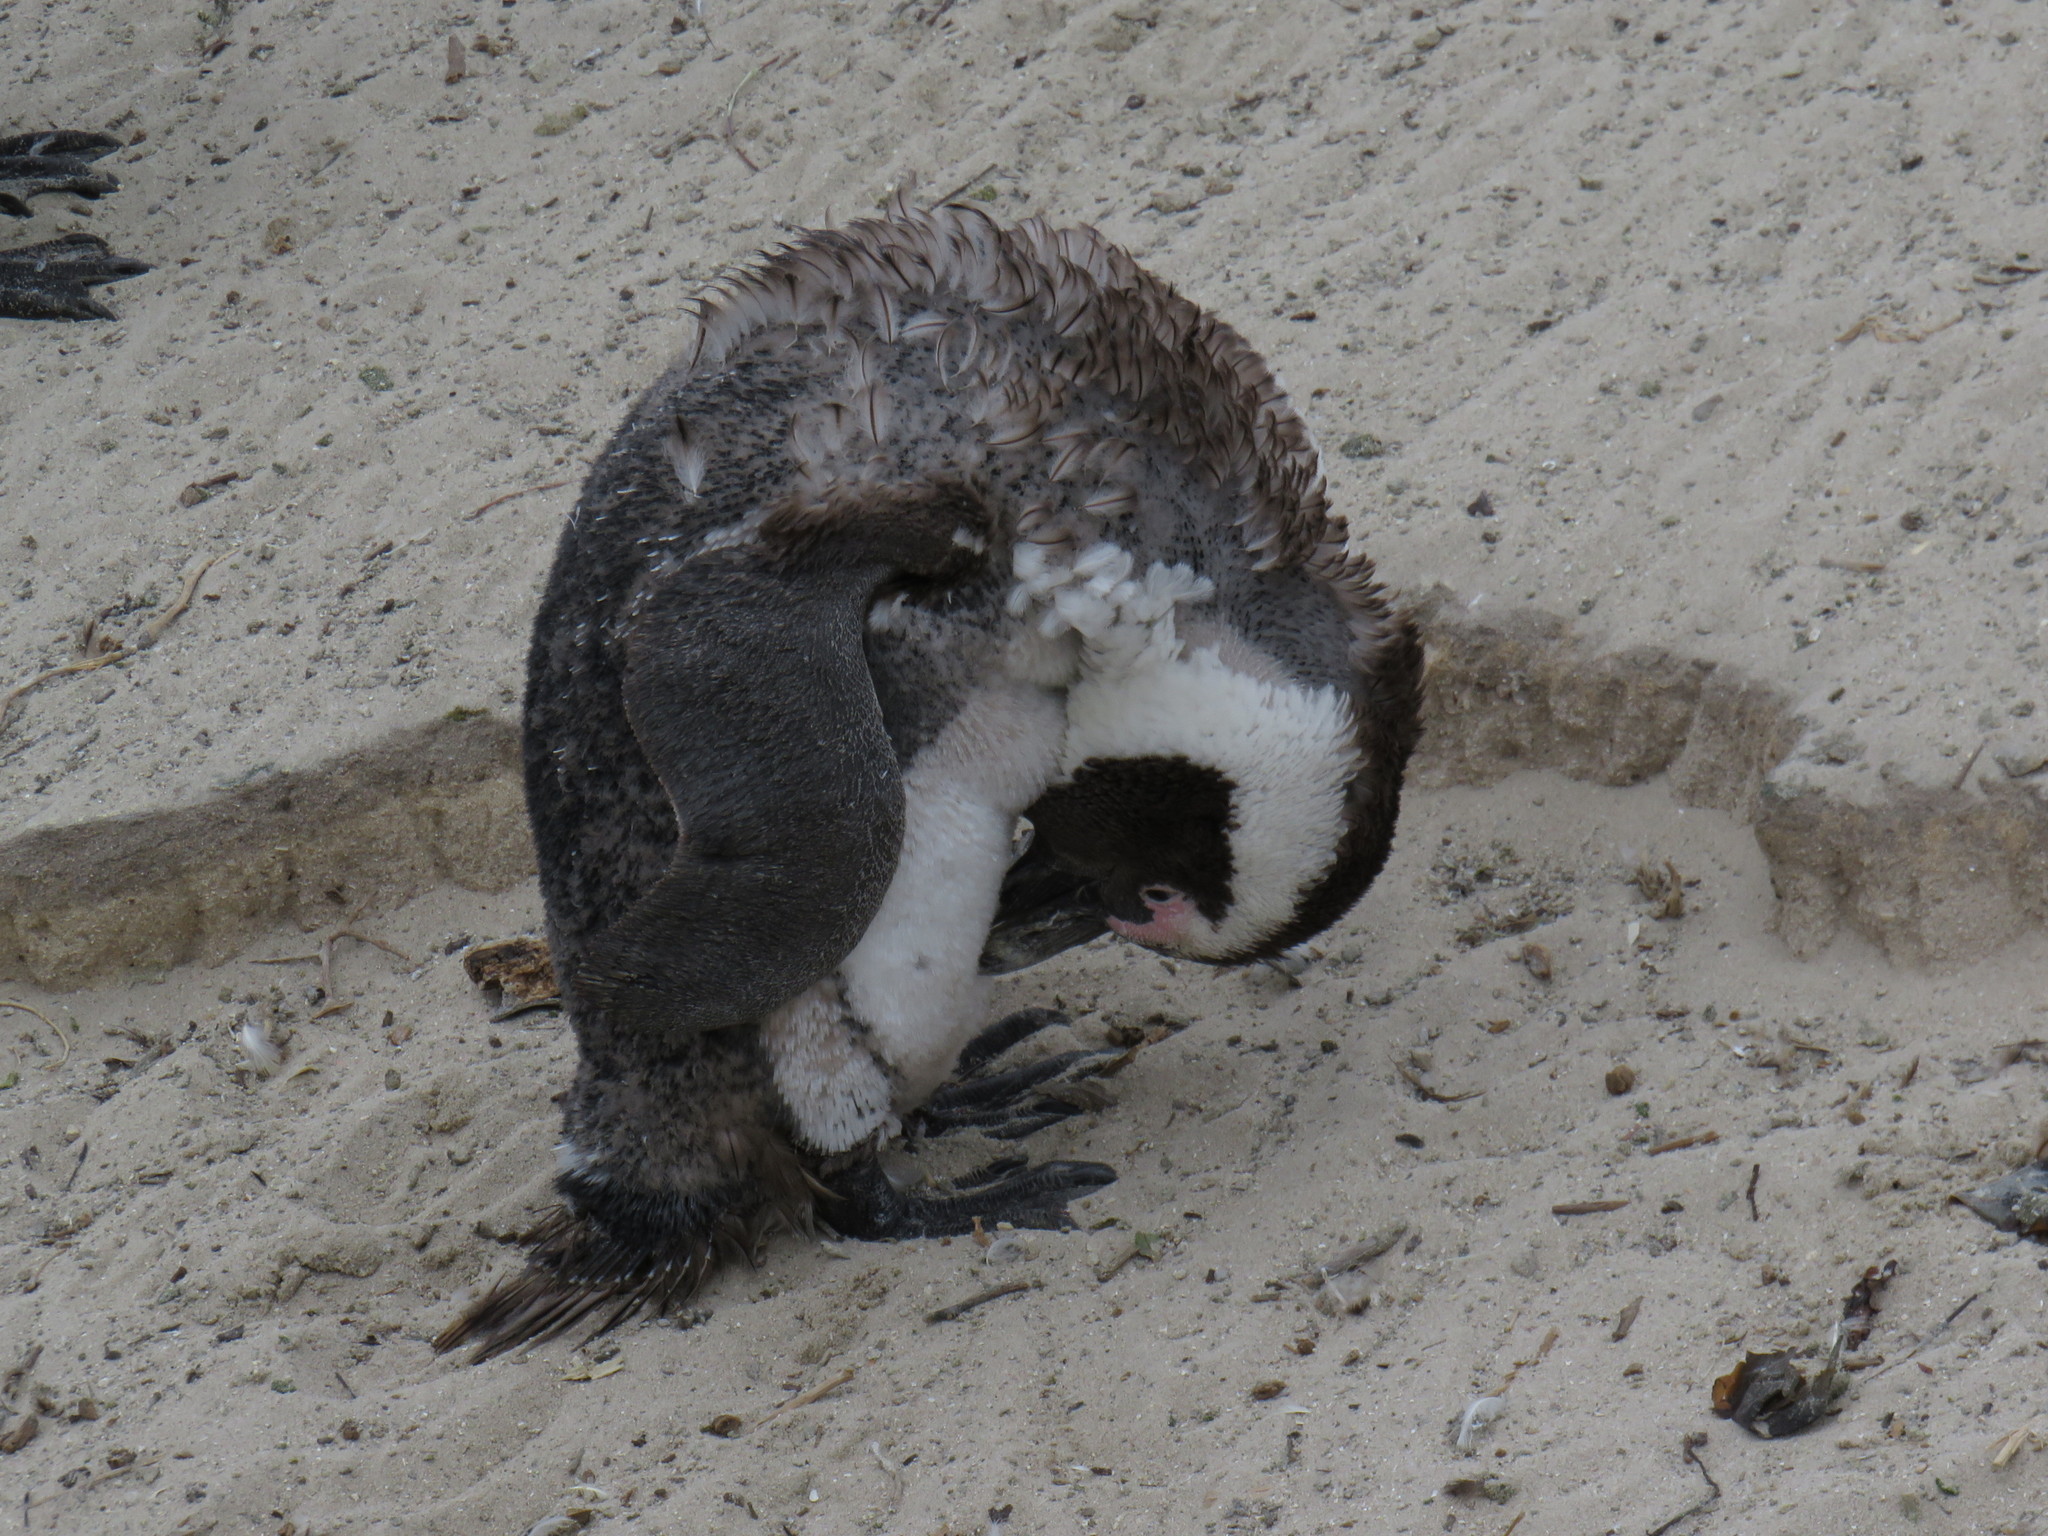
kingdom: Animalia
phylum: Chordata
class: Aves
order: Sphenisciformes
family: Spheniscidae
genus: Spheniscus
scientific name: Spheniscus demersus
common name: African penguin
